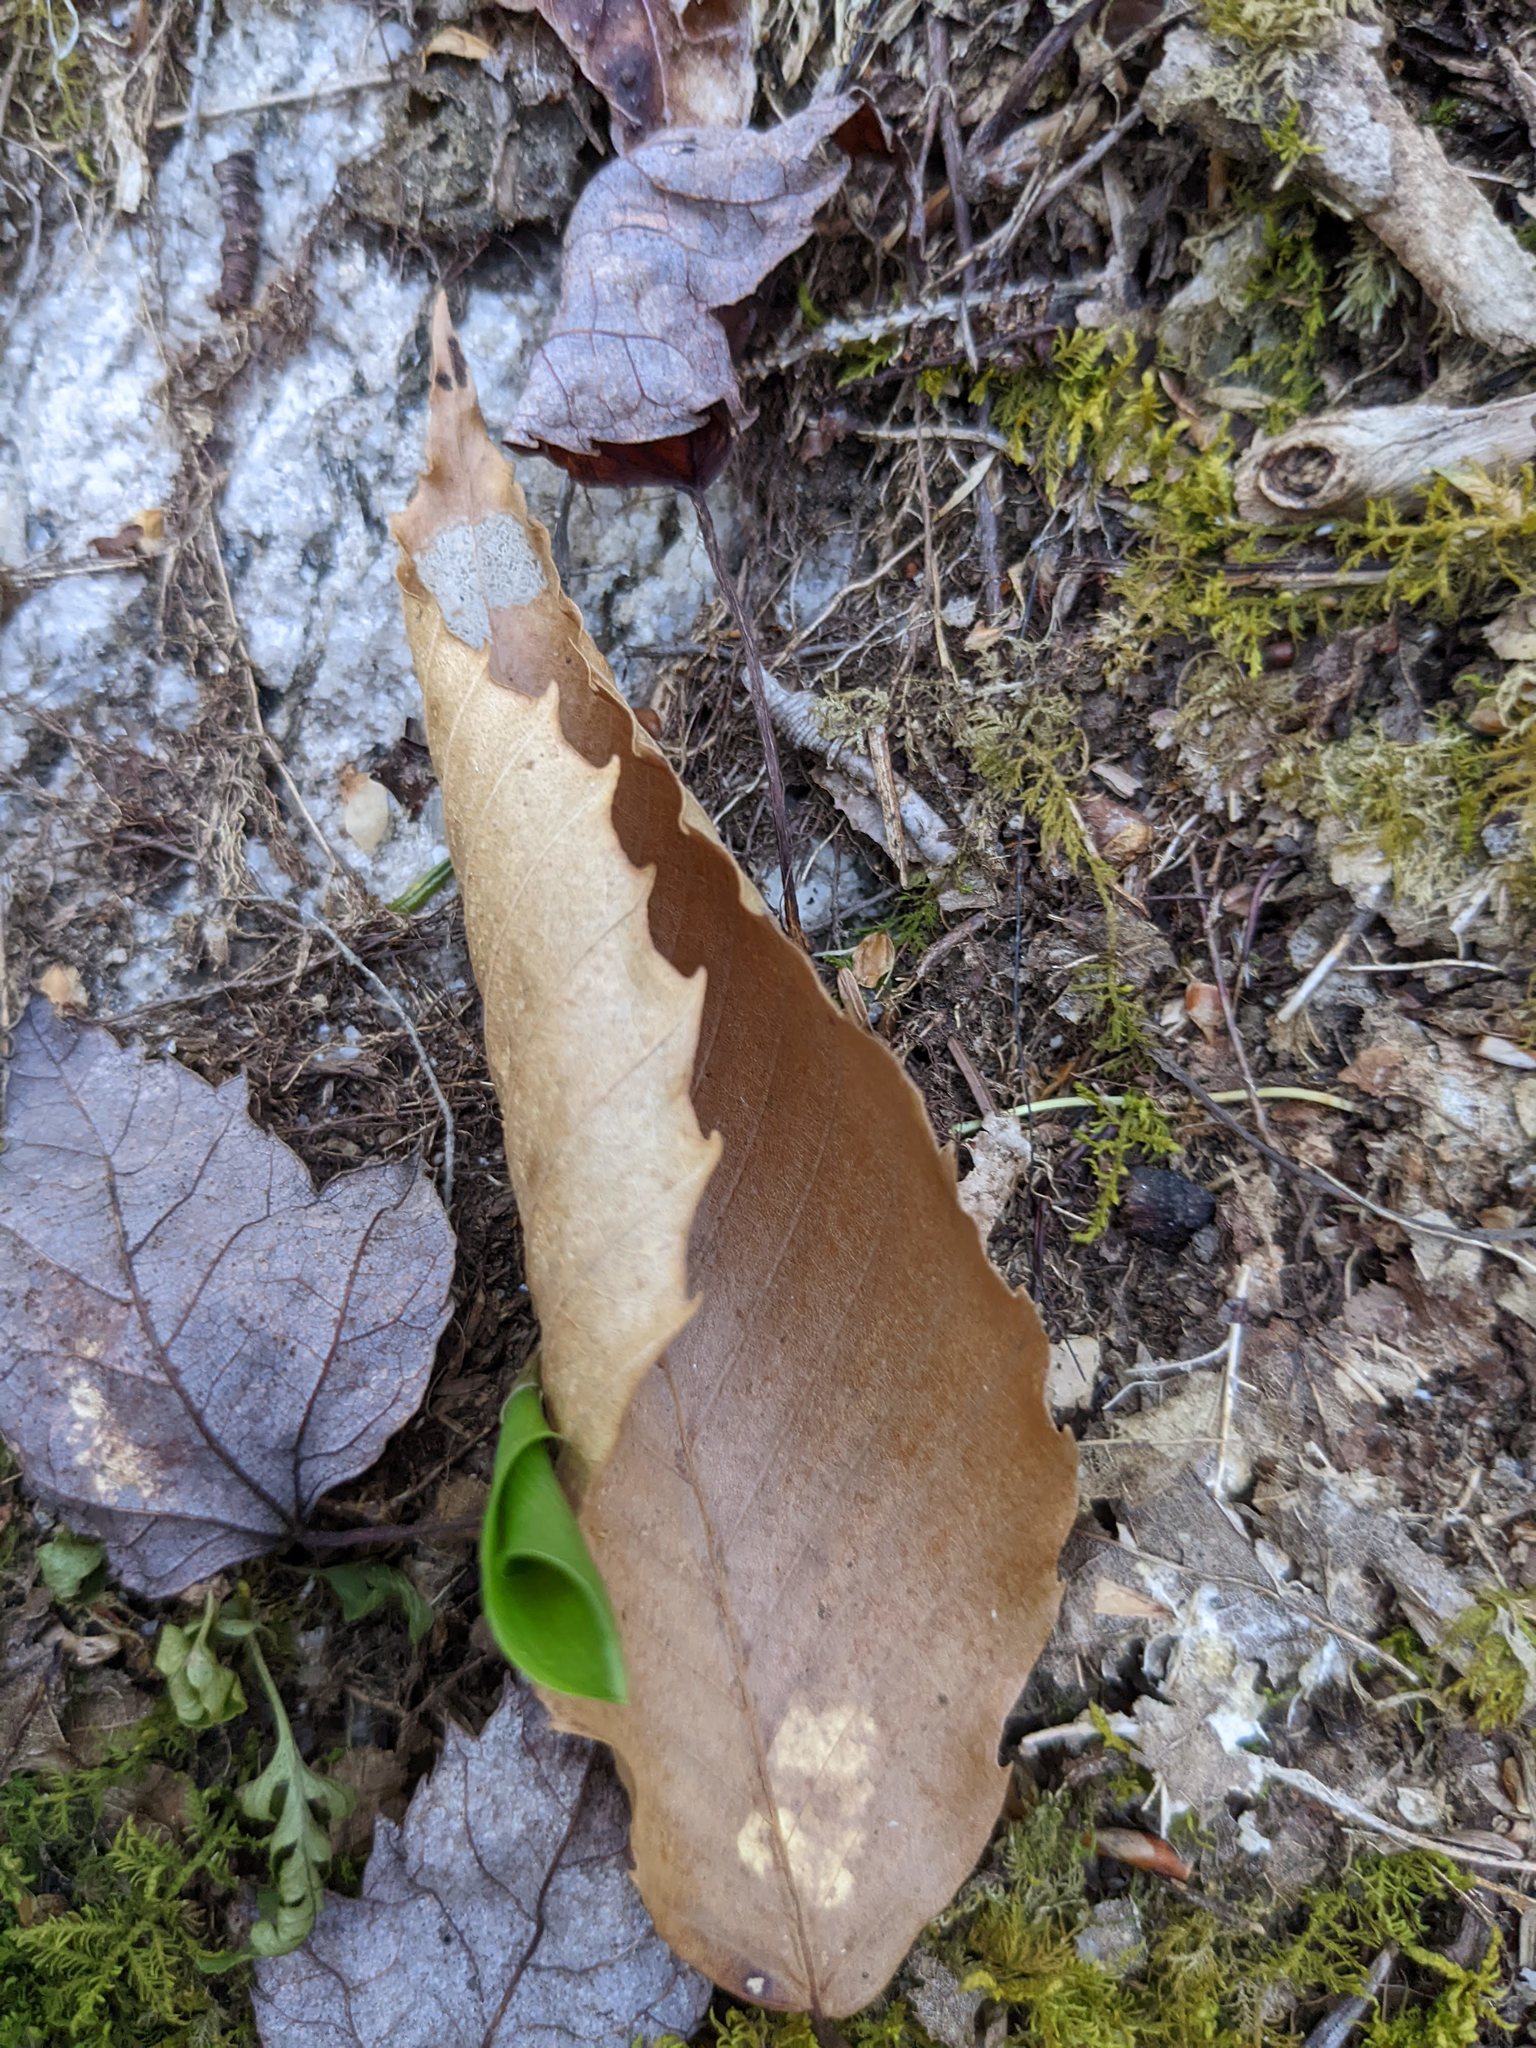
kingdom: Plantae
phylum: Tracheophyta
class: Magnoliopsida
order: Fagales
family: Fagaceae
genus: Fagus
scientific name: Fagus grandifolia
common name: American beech
